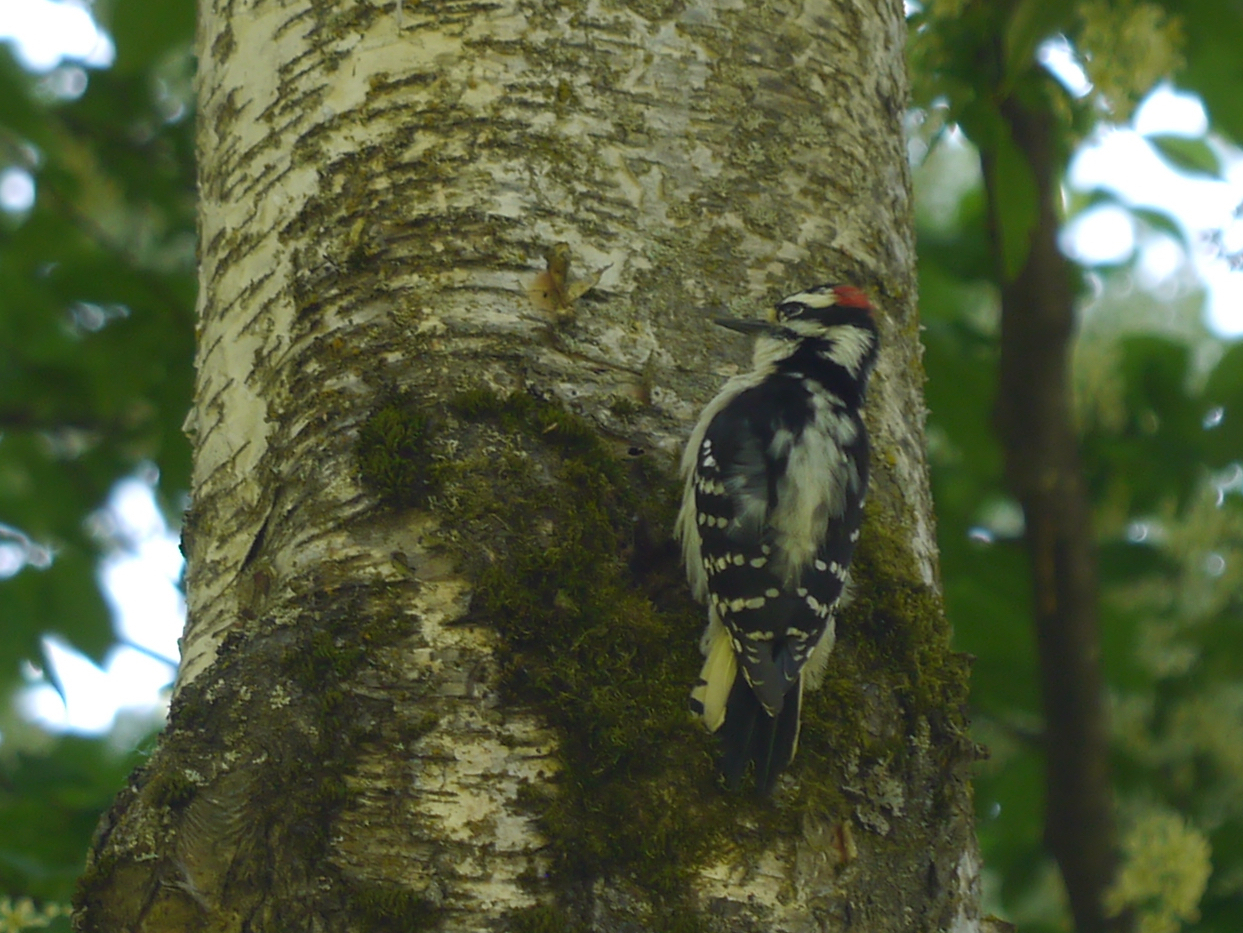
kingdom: Animalia
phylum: Chordata
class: Aves
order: Piciformes
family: Picidae
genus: Dryobates
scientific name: Dryobates pubescens
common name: Downy woodpecker
